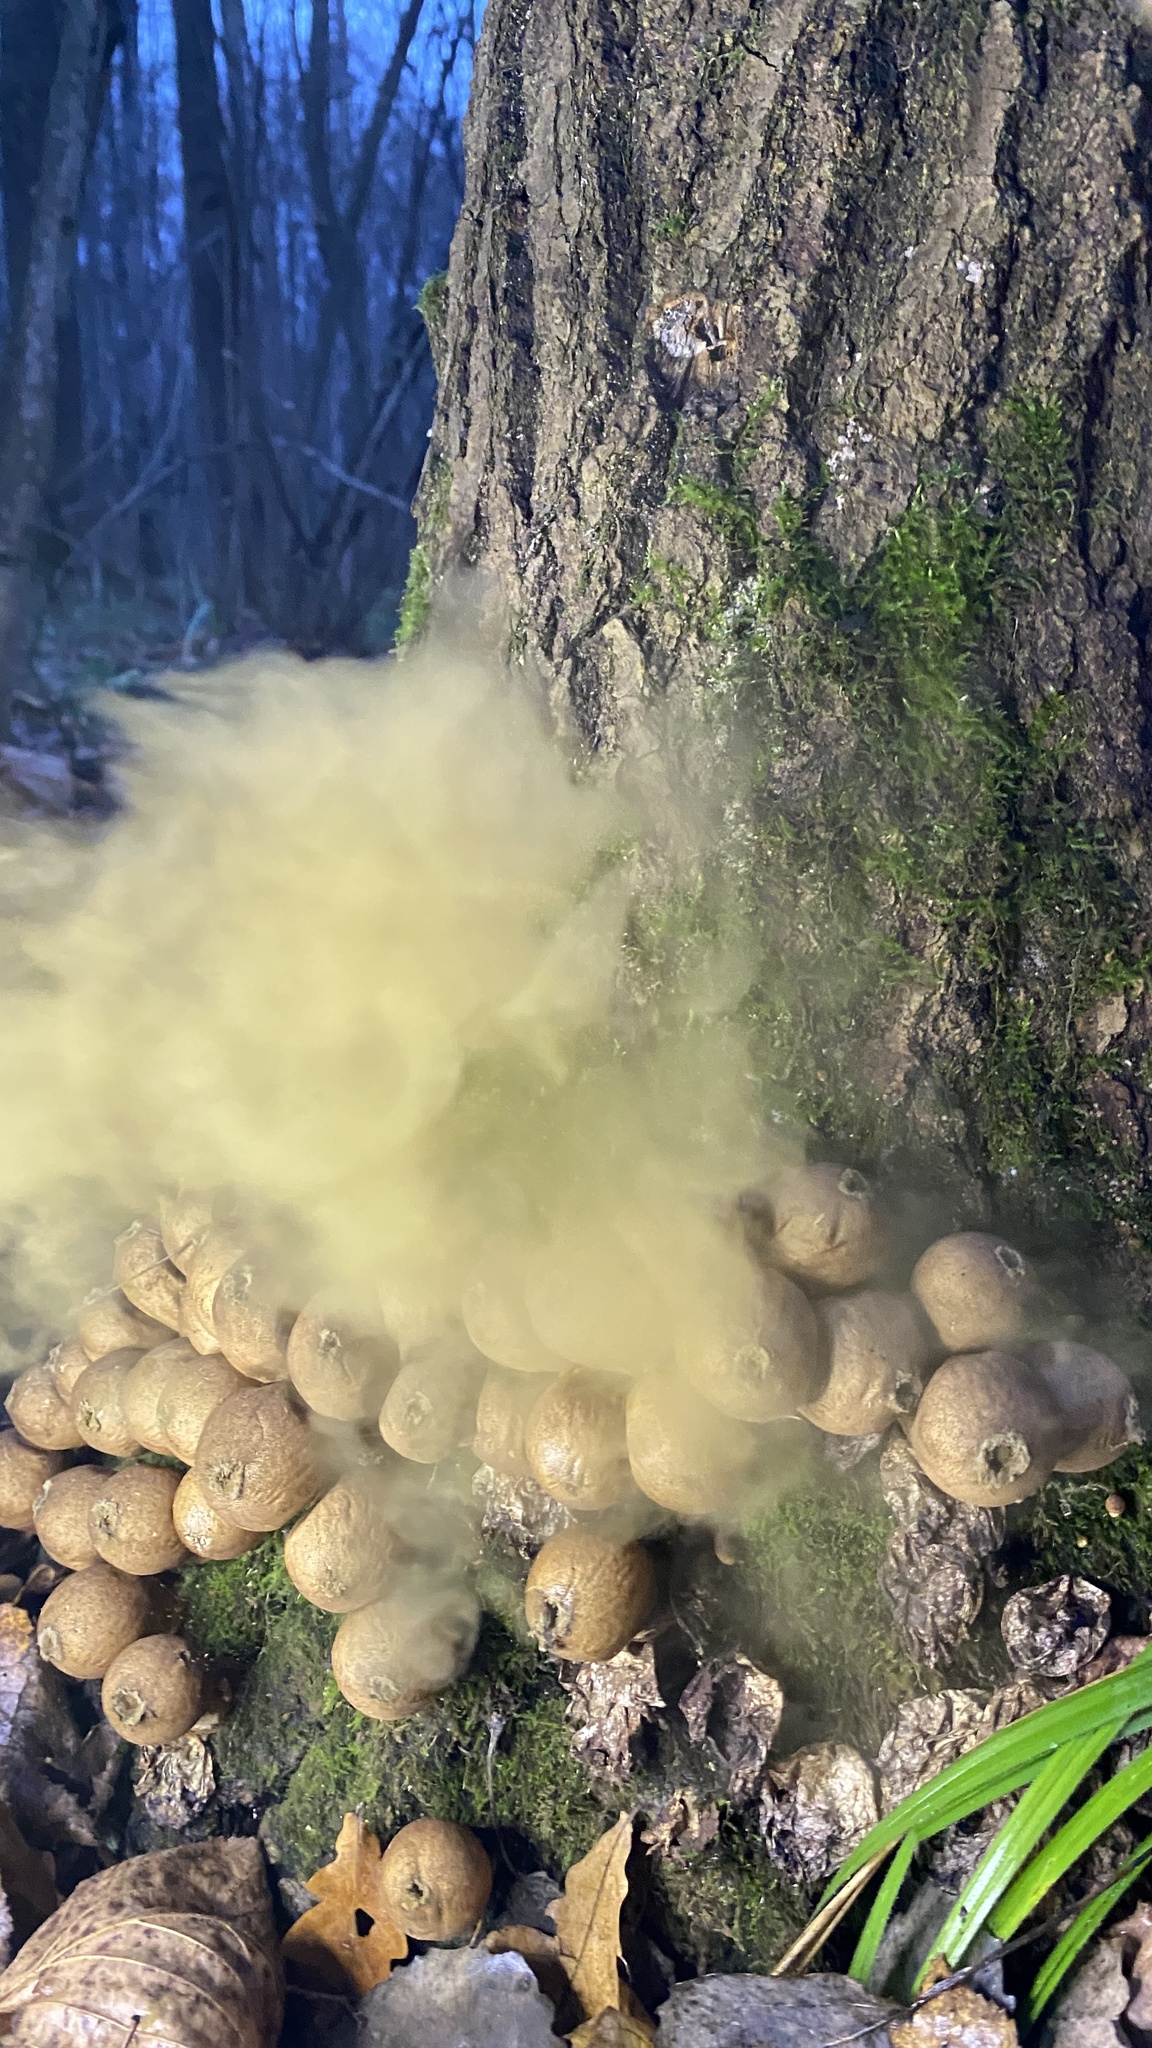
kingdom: Fungi
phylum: Basidiomycota
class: Agaricomycetes
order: Agaricales
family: Lycoperdaceae
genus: Apioperdon
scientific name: Apioperdon pyriforme
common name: Pear-shaped puffball
